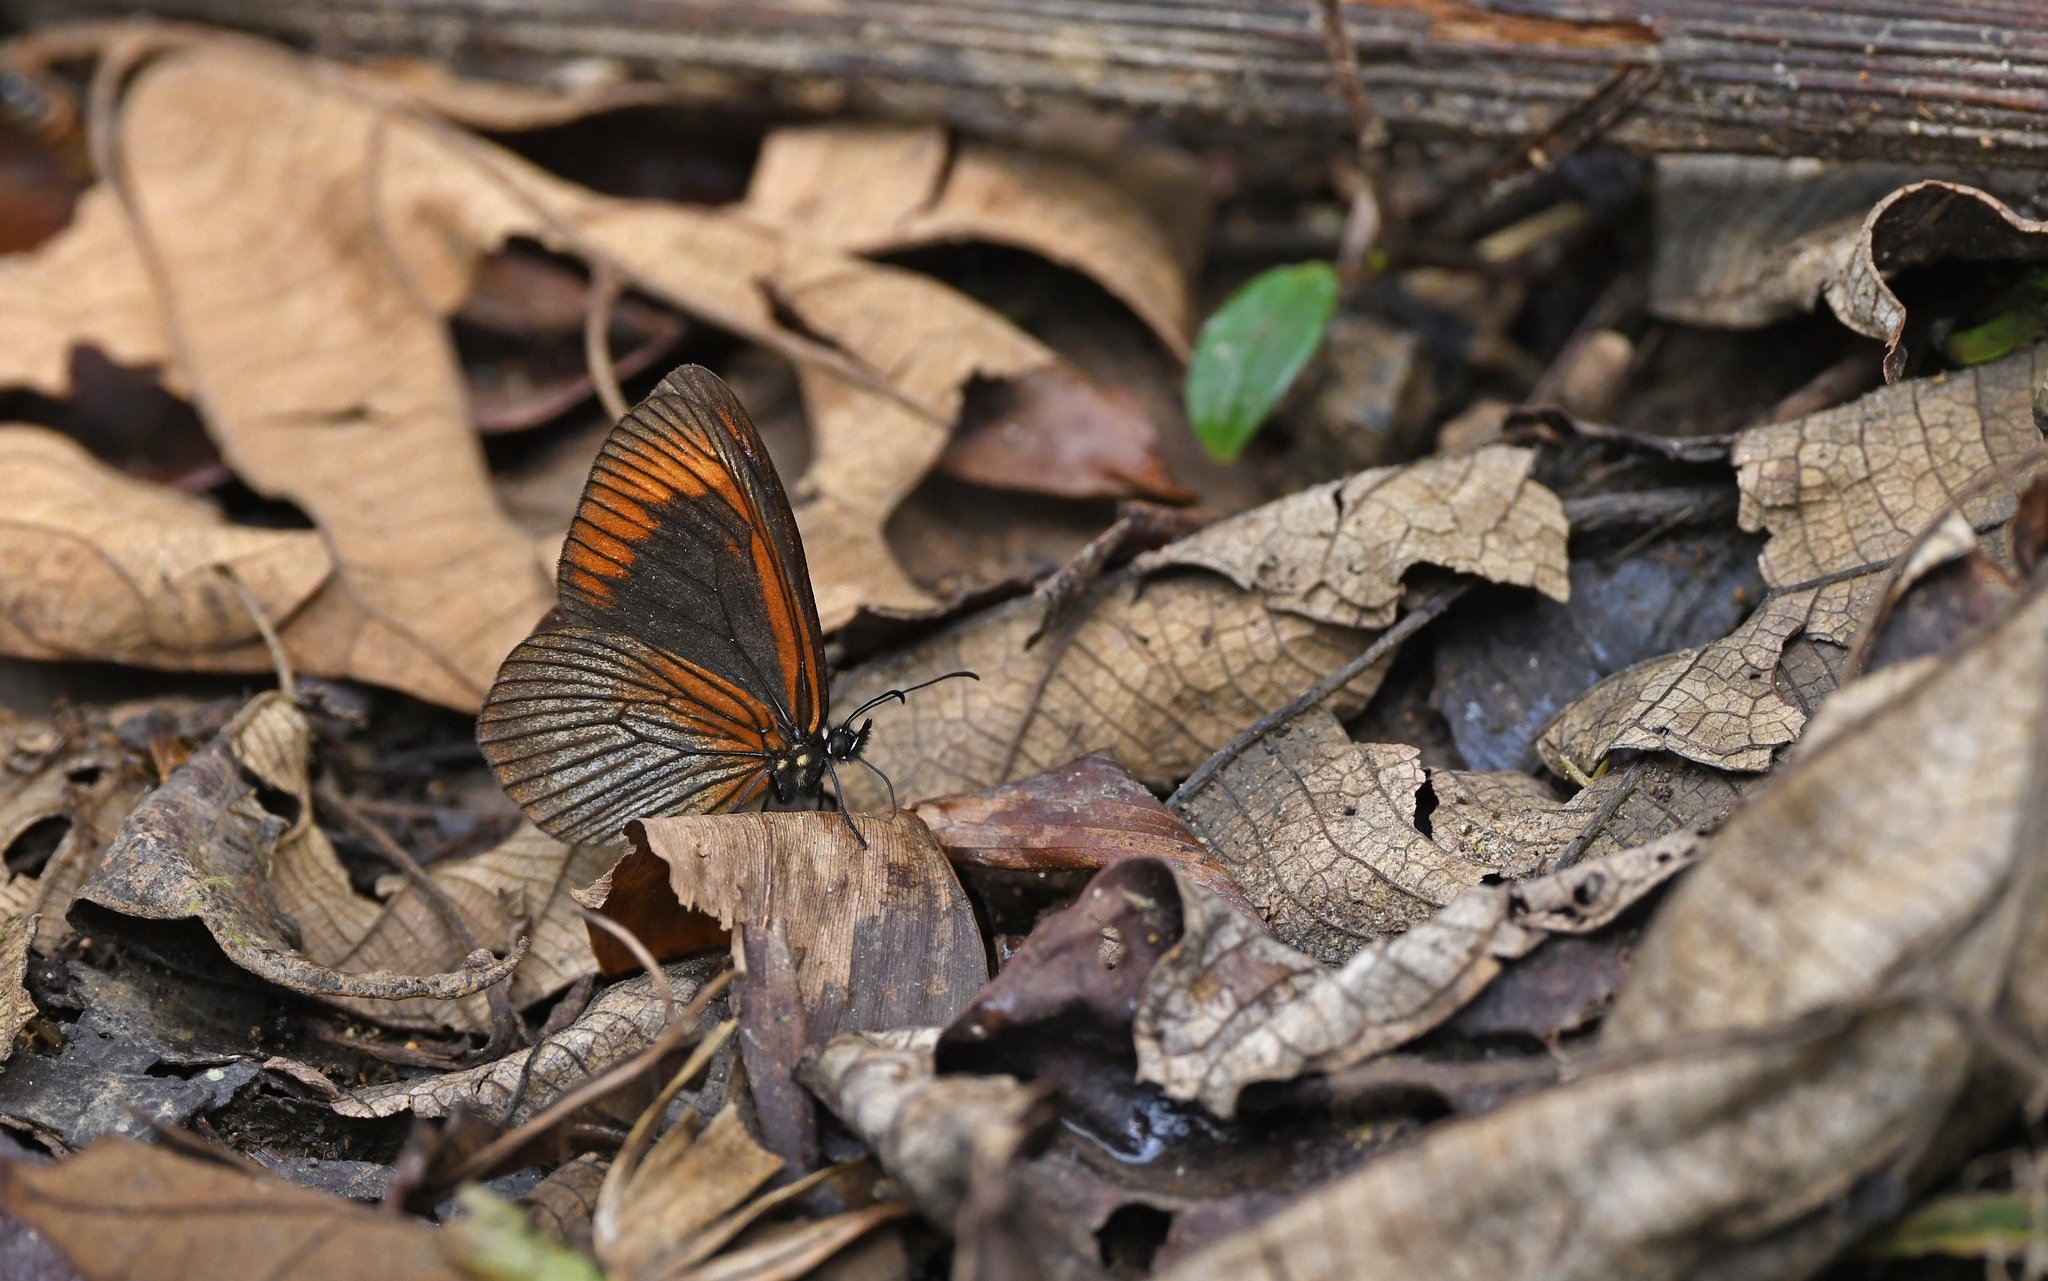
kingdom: Animalia
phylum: Arthropoda
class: Insecta
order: Lepidoptera
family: Nymphalidae
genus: Lymanopoda
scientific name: Lymanopoda acraeida
